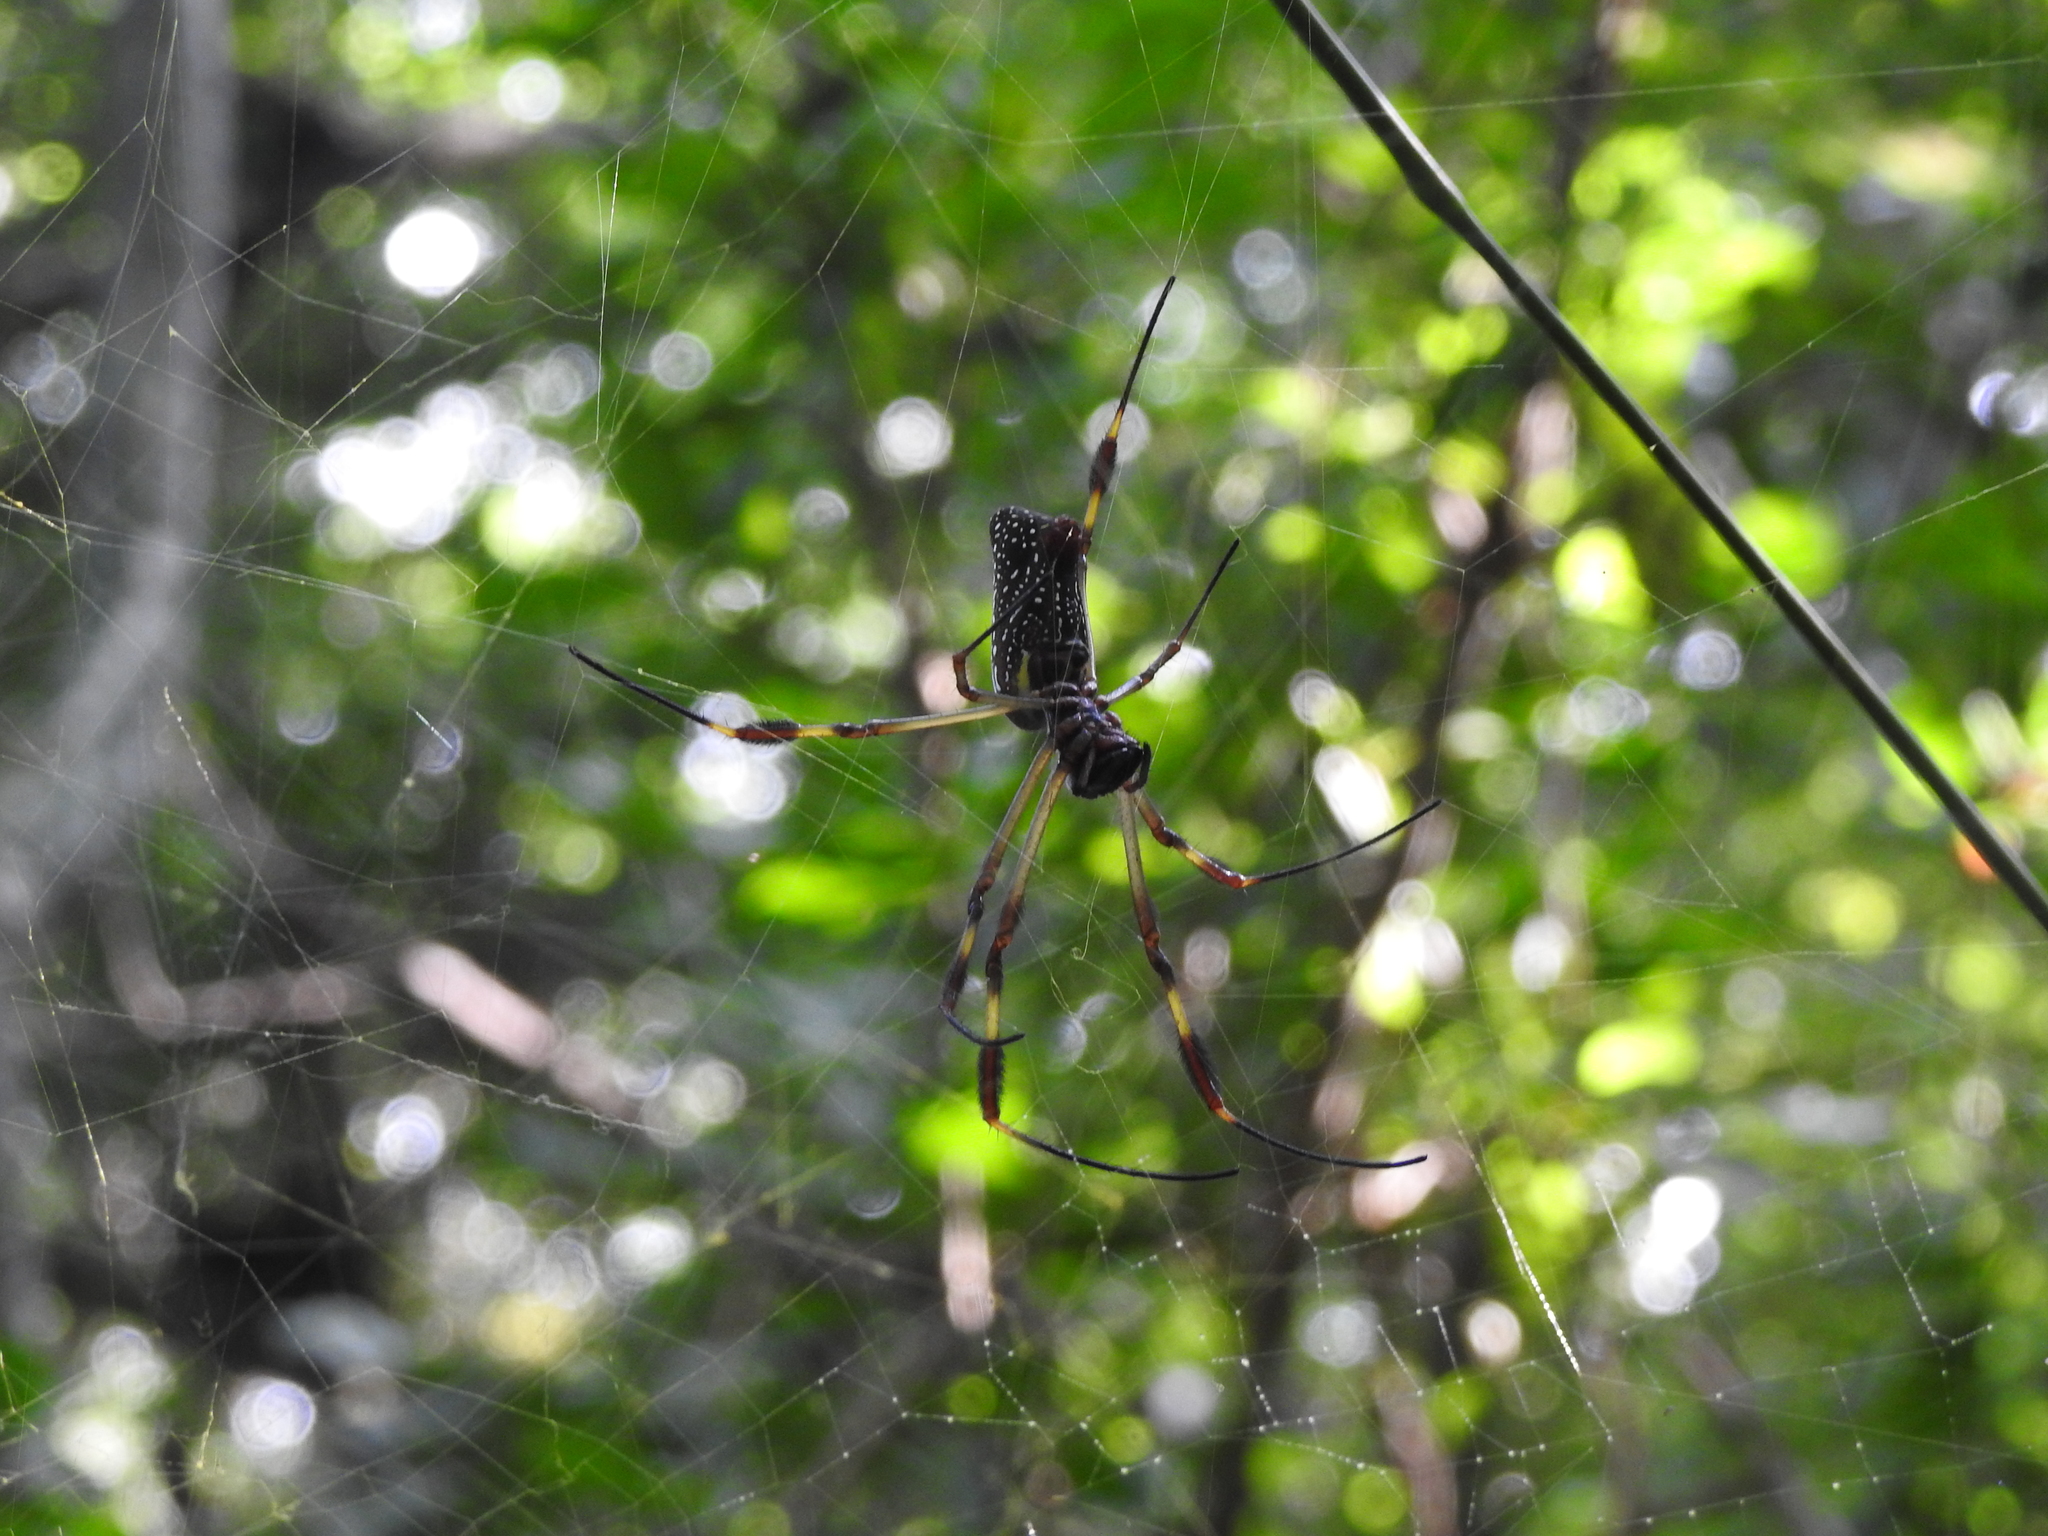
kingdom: Animalia
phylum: Arthropoda
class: Arachnida
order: Araneae
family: Araneidae
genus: Trichonephila
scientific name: Trichonephila clavipes
